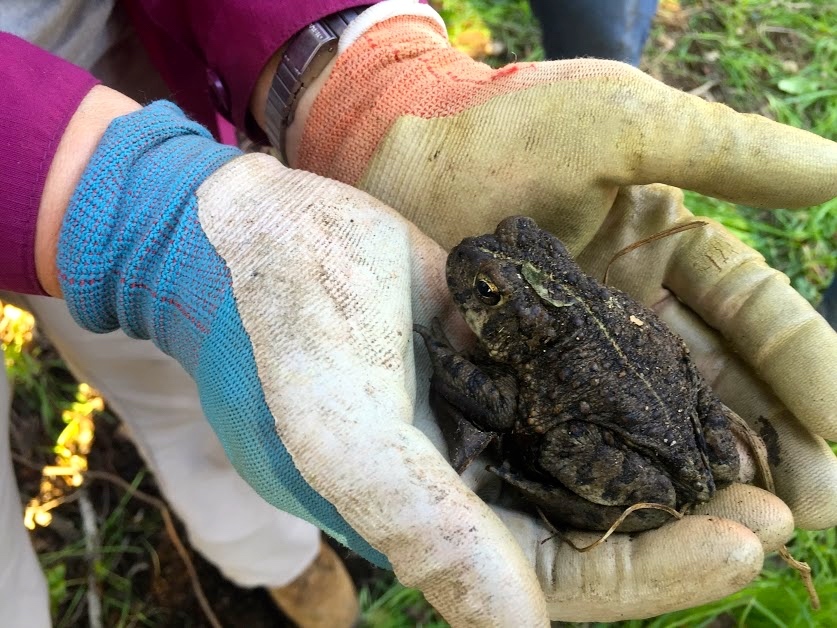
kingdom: Animalia
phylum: Chordata
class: Amphibia
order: Anura
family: Bufonidae
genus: Anaxyrus
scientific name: Anaxyrus boreas
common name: Western toad
